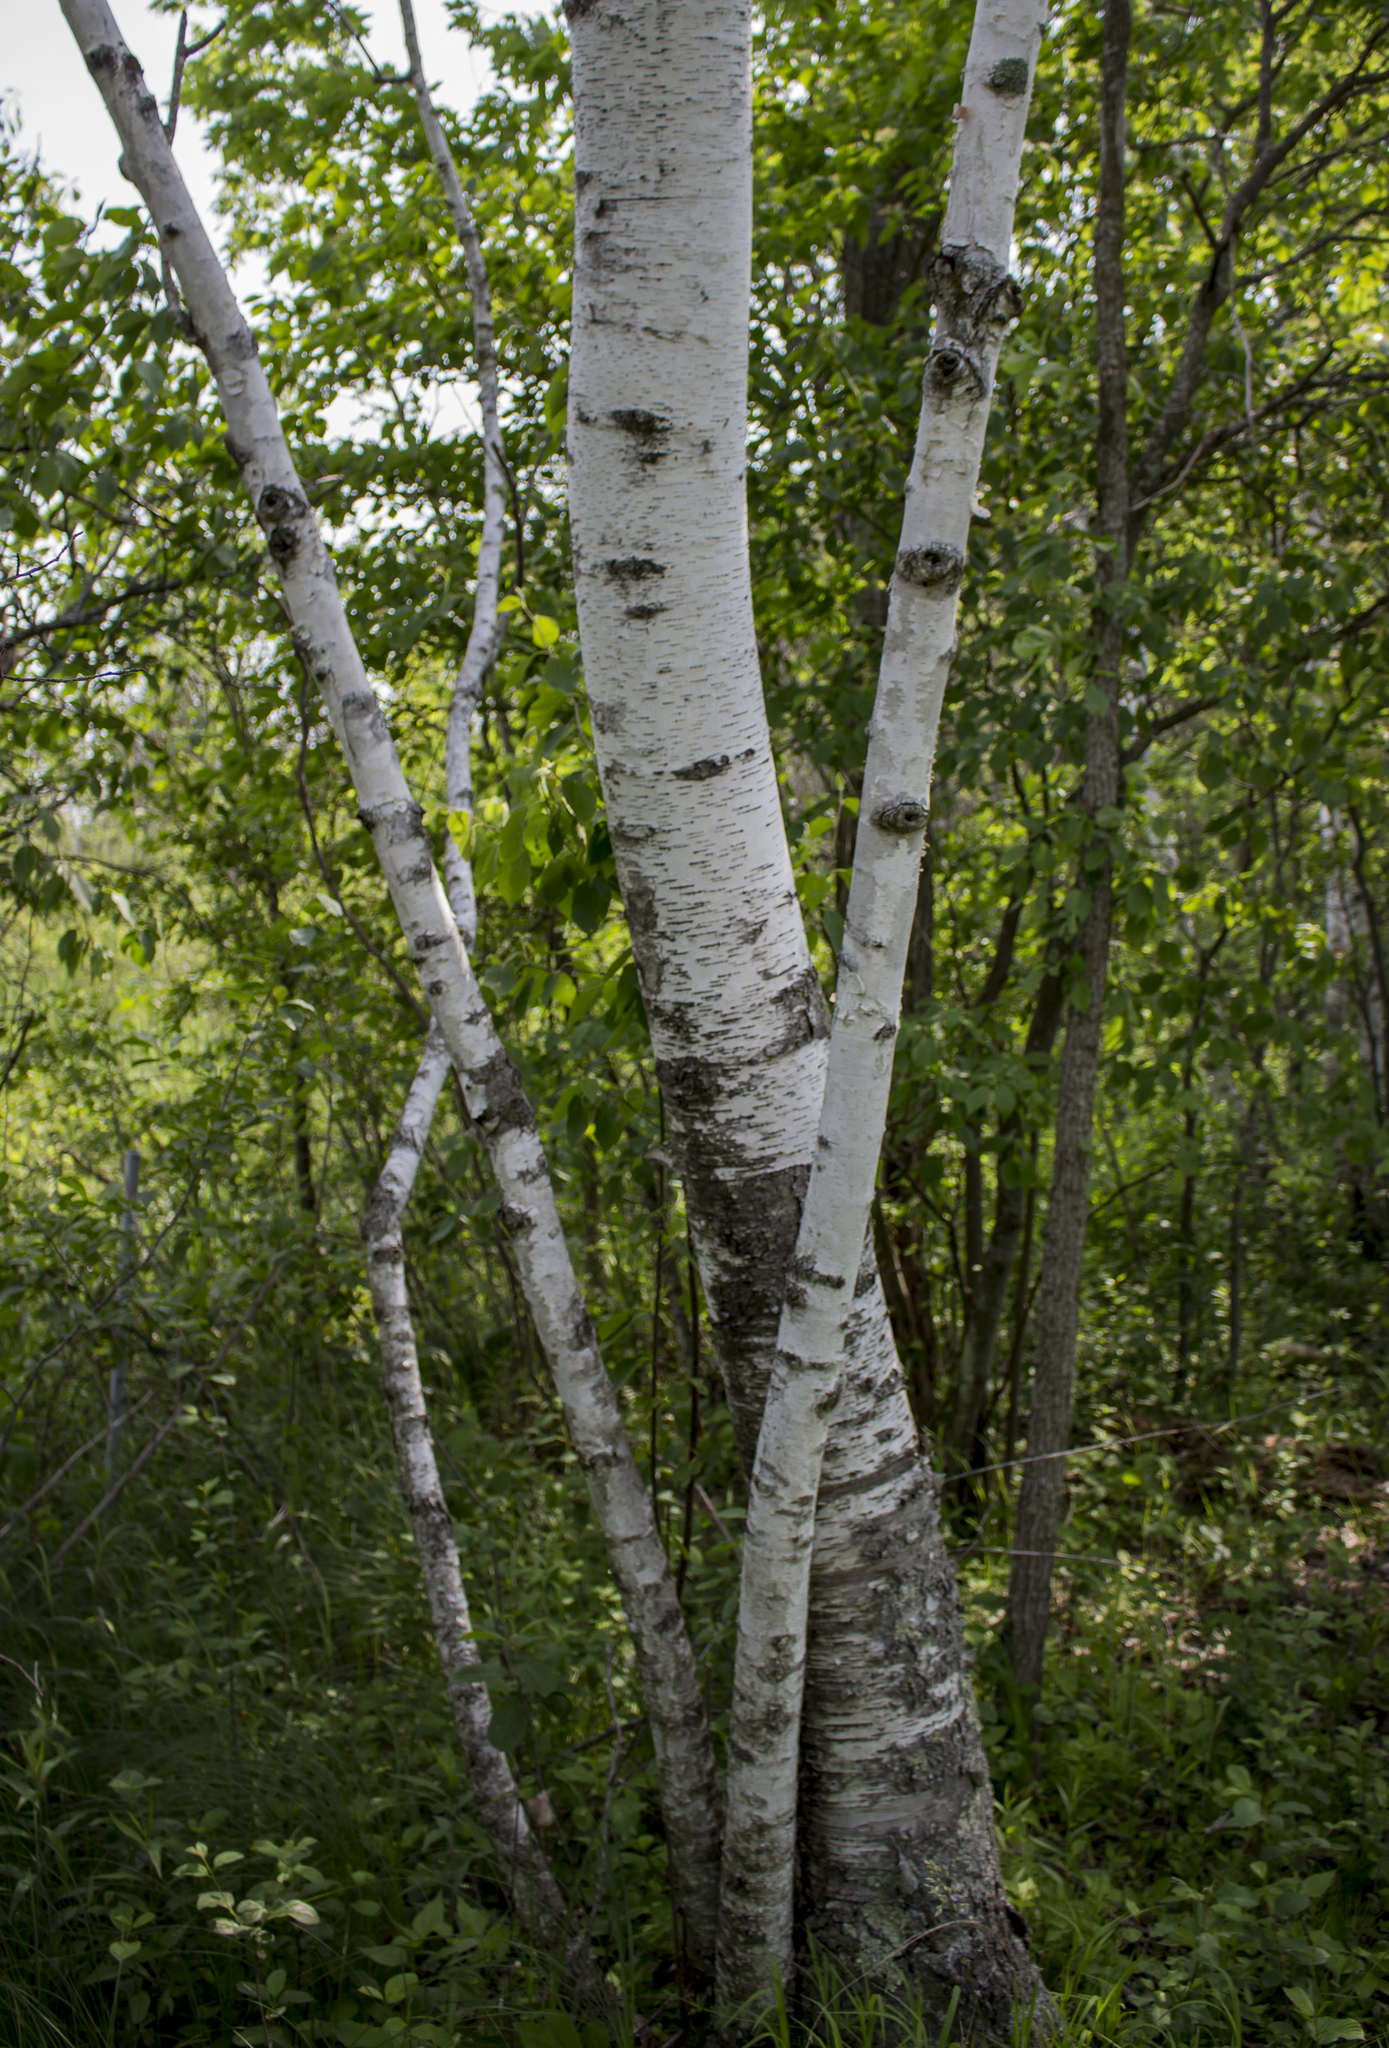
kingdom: Plantae
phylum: Tracheophyta
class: Magnoliopsida
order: Fagales
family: Betulaceae
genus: Betula
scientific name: Betula papyrifera
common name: Paper birch
